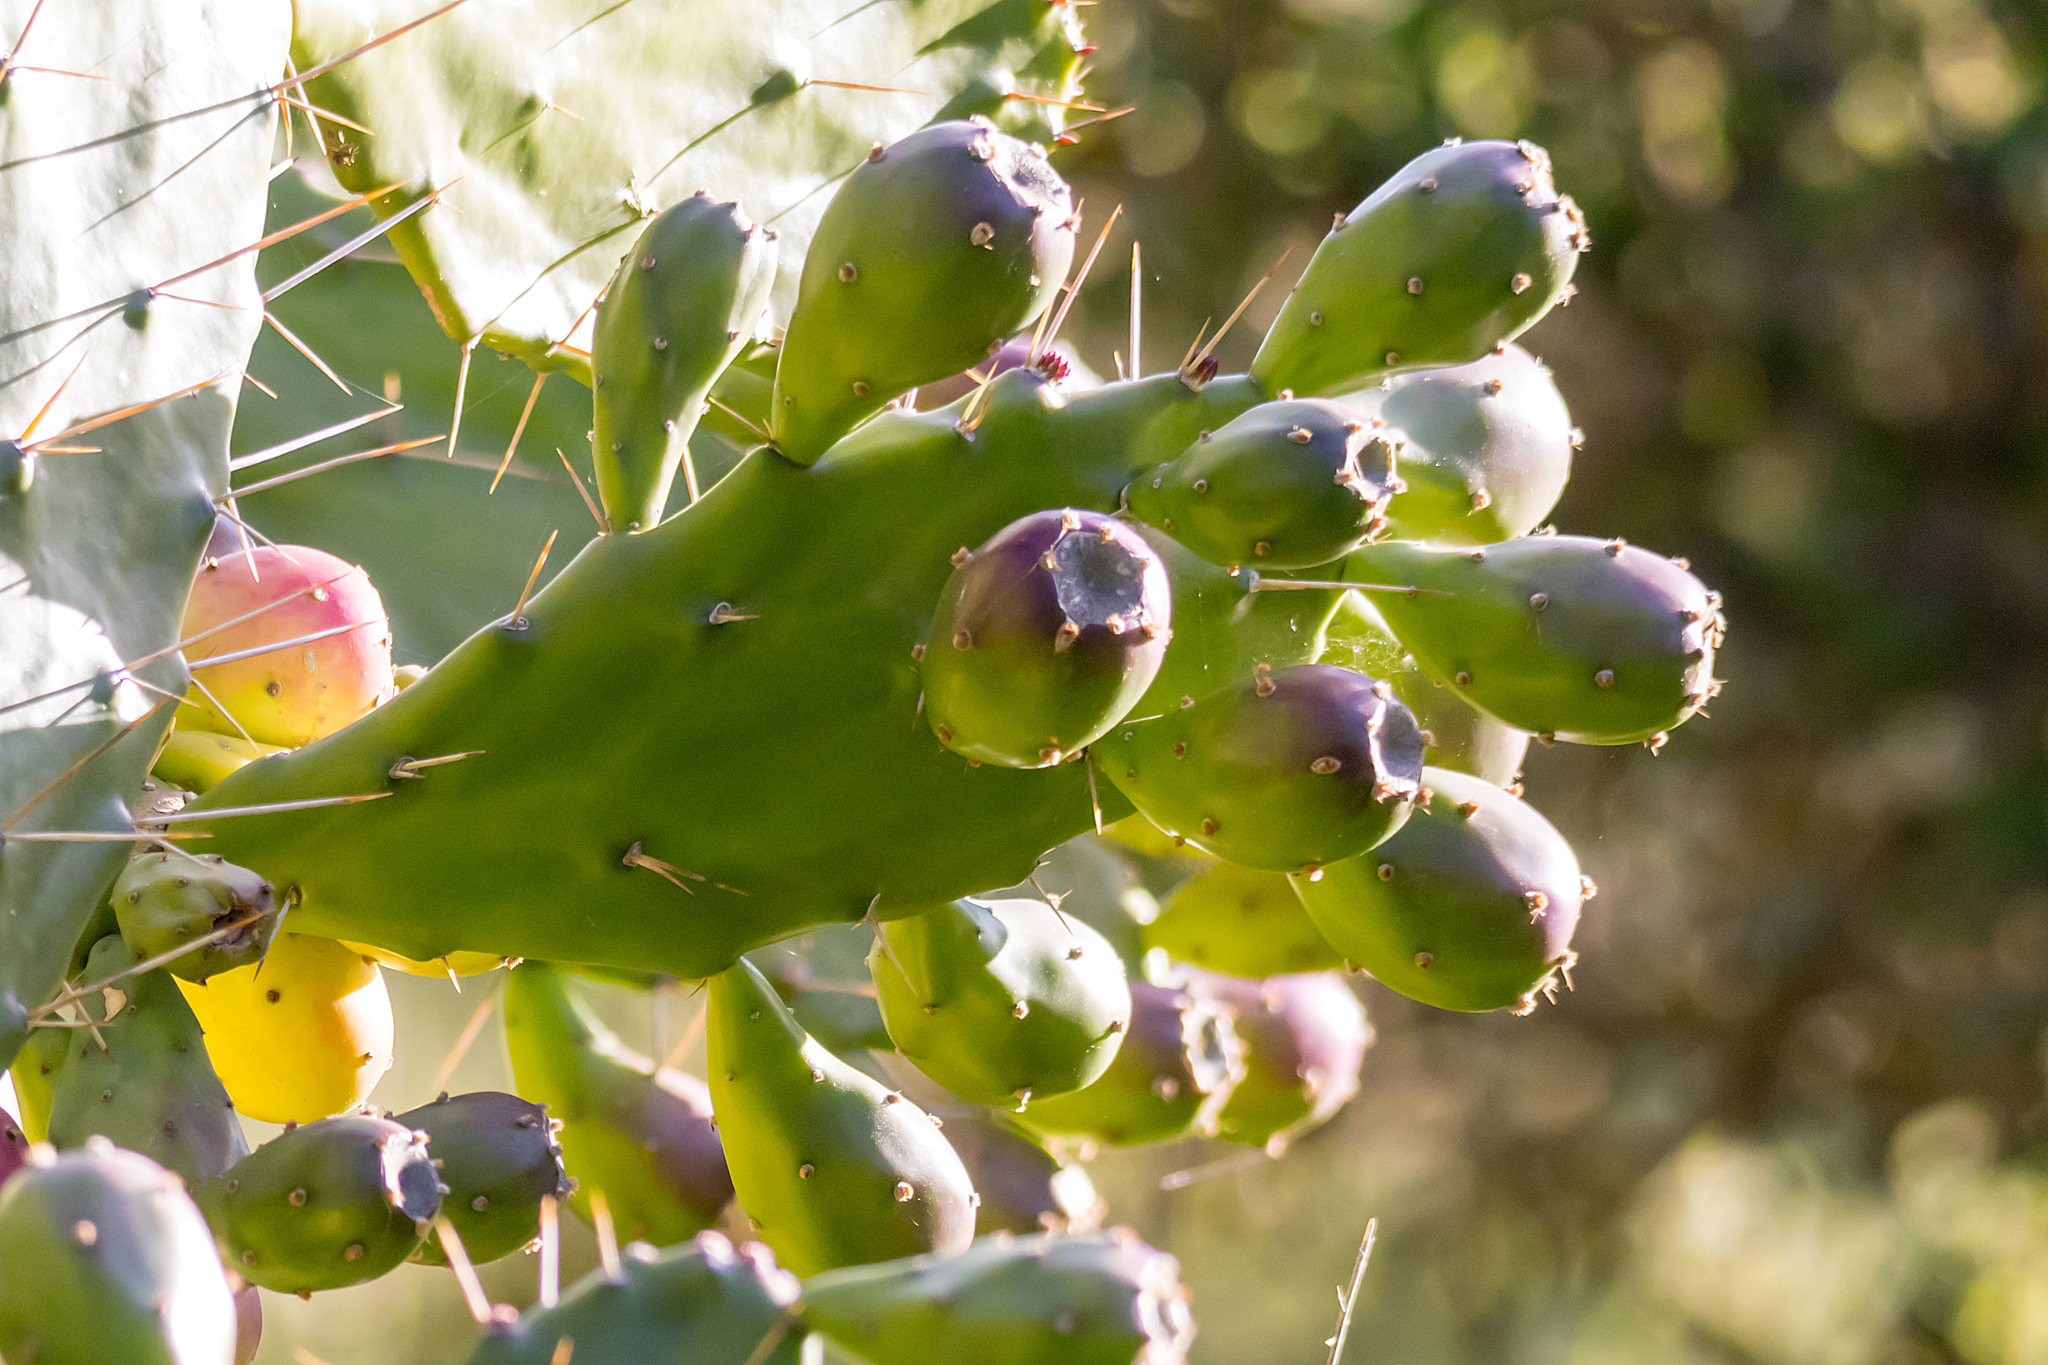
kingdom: Plantae
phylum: Tracheophyta
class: Magnoliopsida
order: Caryophyllales
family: Cactaceae
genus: Opuntia
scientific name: Opuntia monacantha
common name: Common pricklypear
